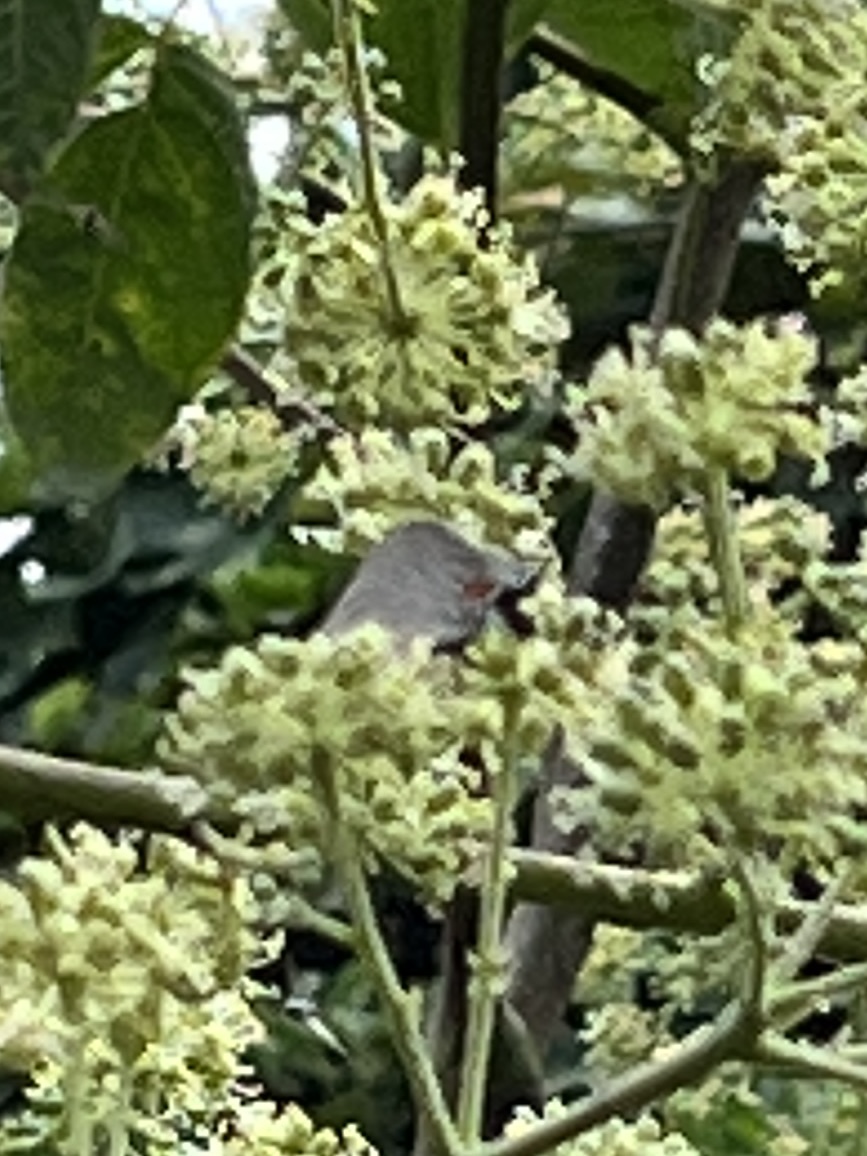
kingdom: Animalia
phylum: Arthropoda
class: Insecta
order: Lepidoptera
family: Lycaenidae
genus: Parrhasius
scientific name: Parrhasius m-album
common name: White m hairstreak
